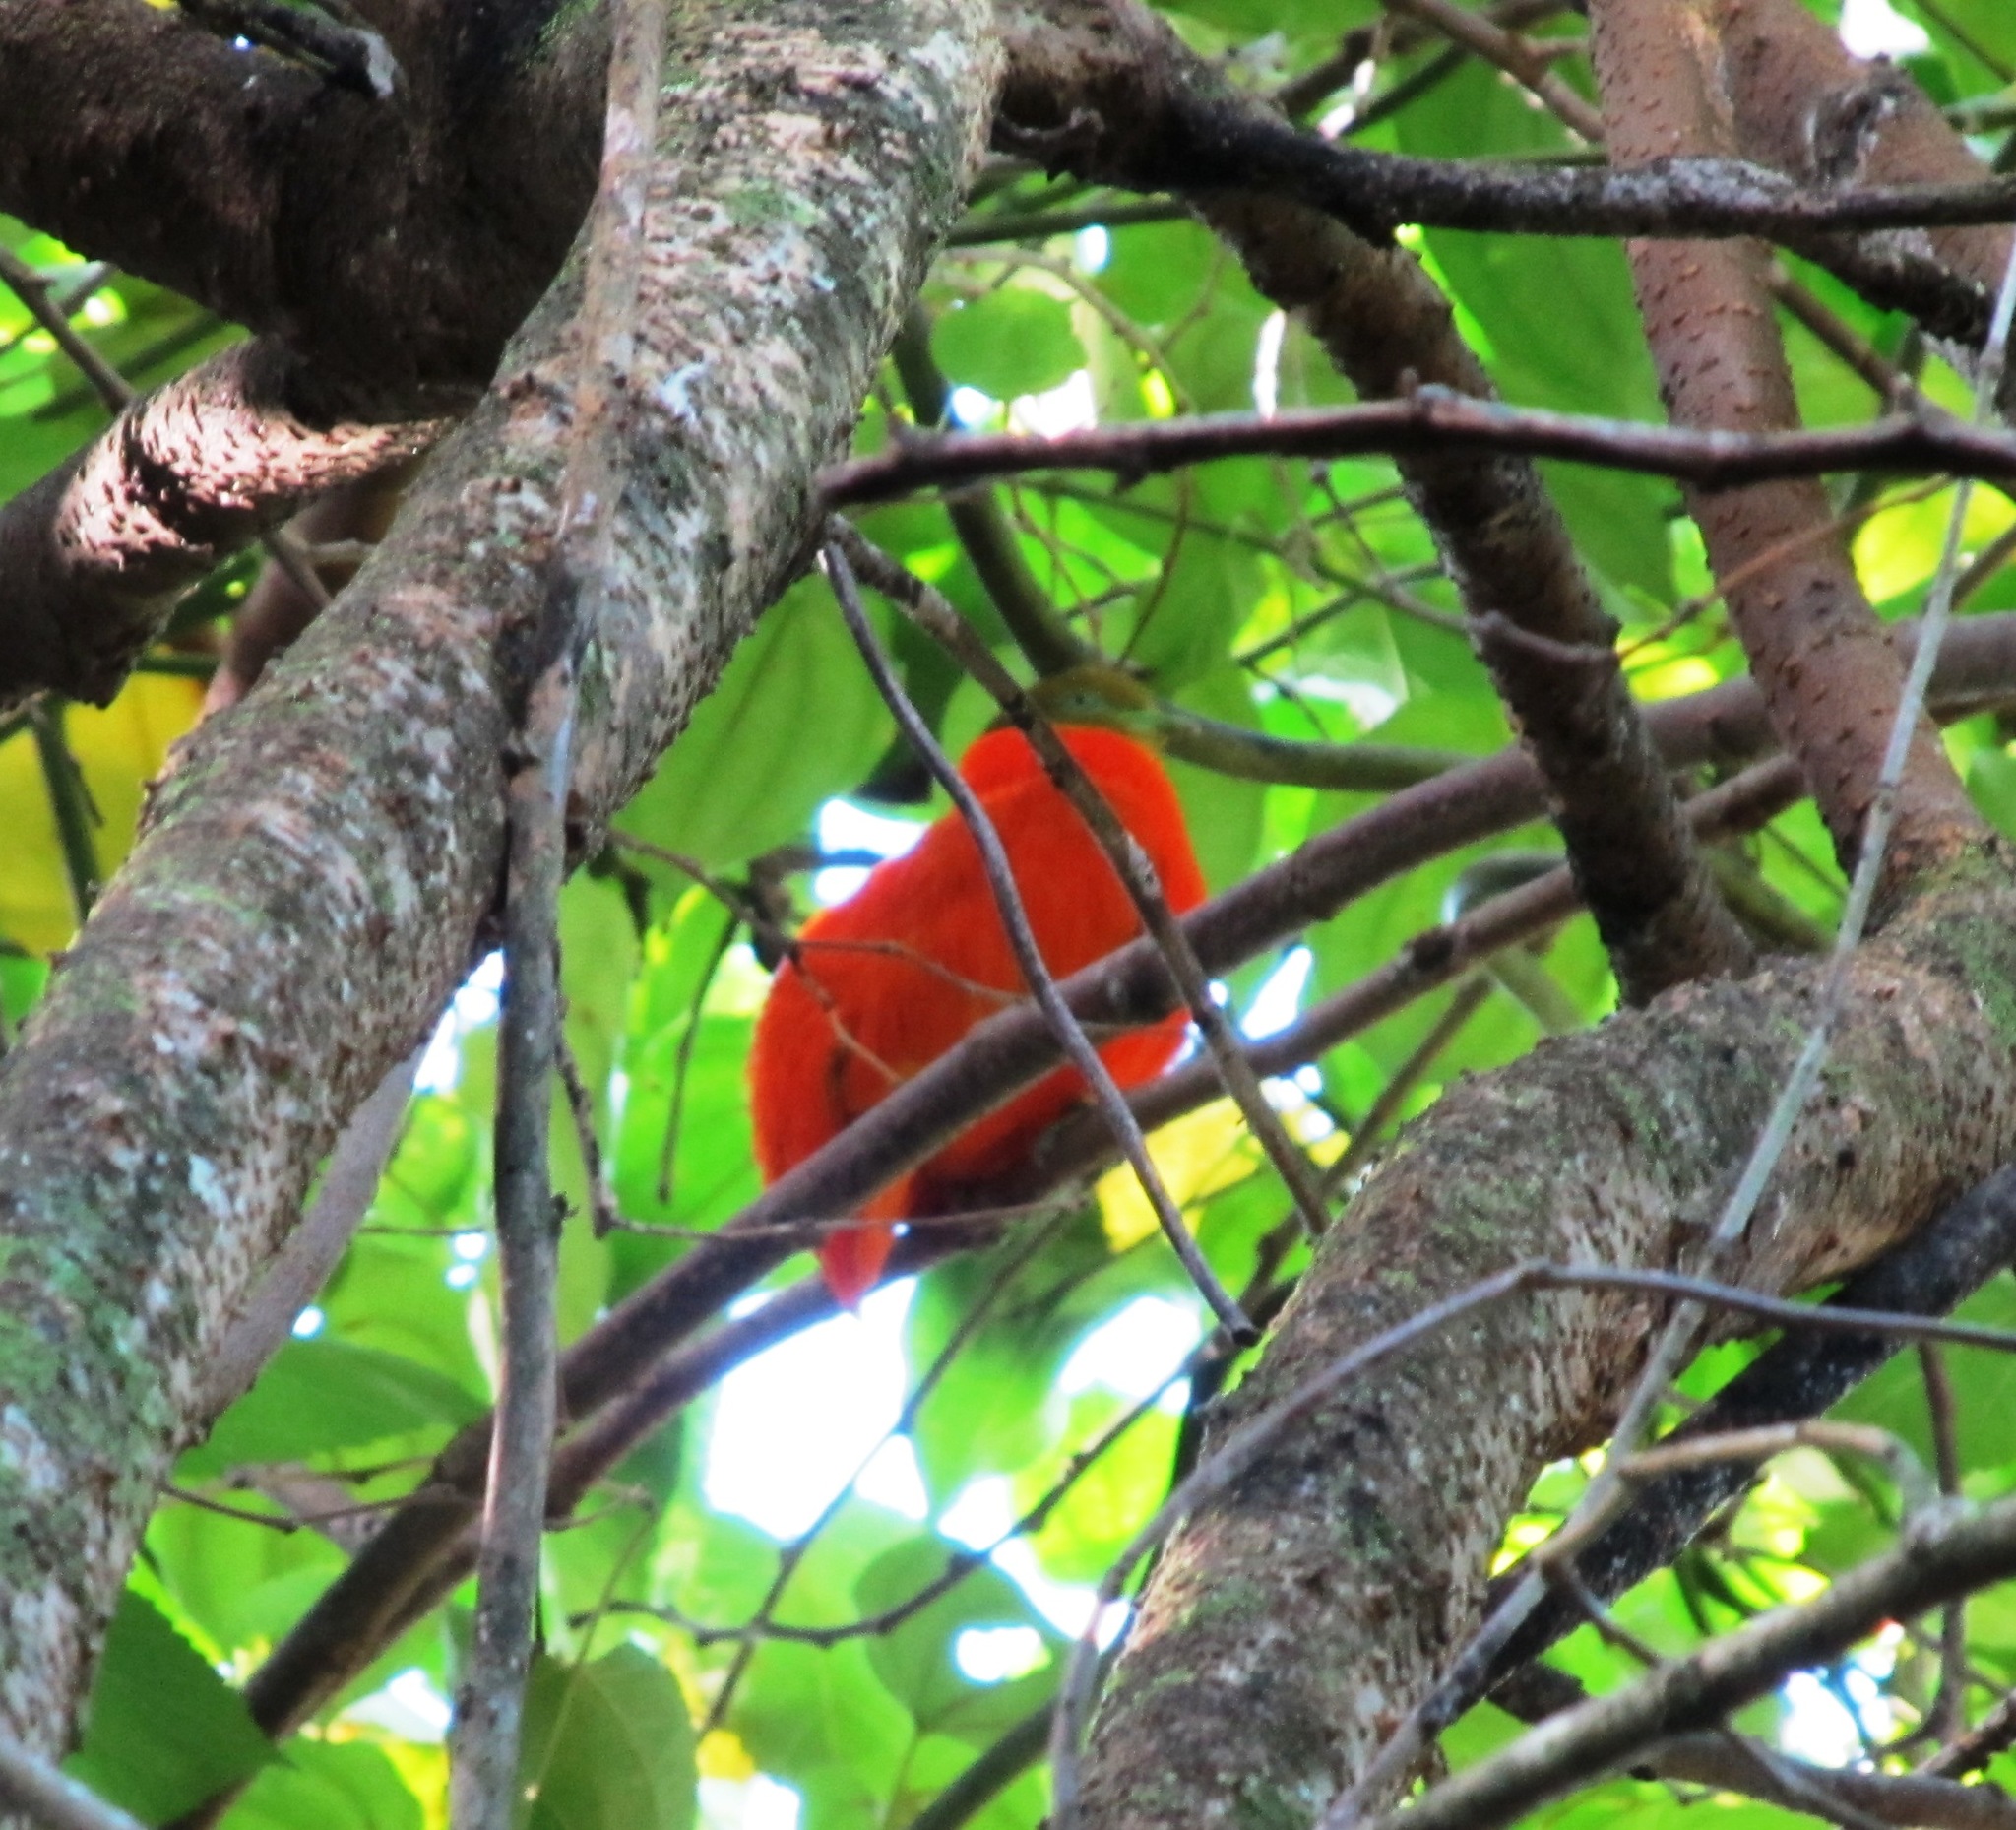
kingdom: Animalia
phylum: Chordata
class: Aves
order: Columbiformes
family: Columbidae
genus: Ptilinopus
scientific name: Ptilinopus victor
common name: Orange fruit dove
